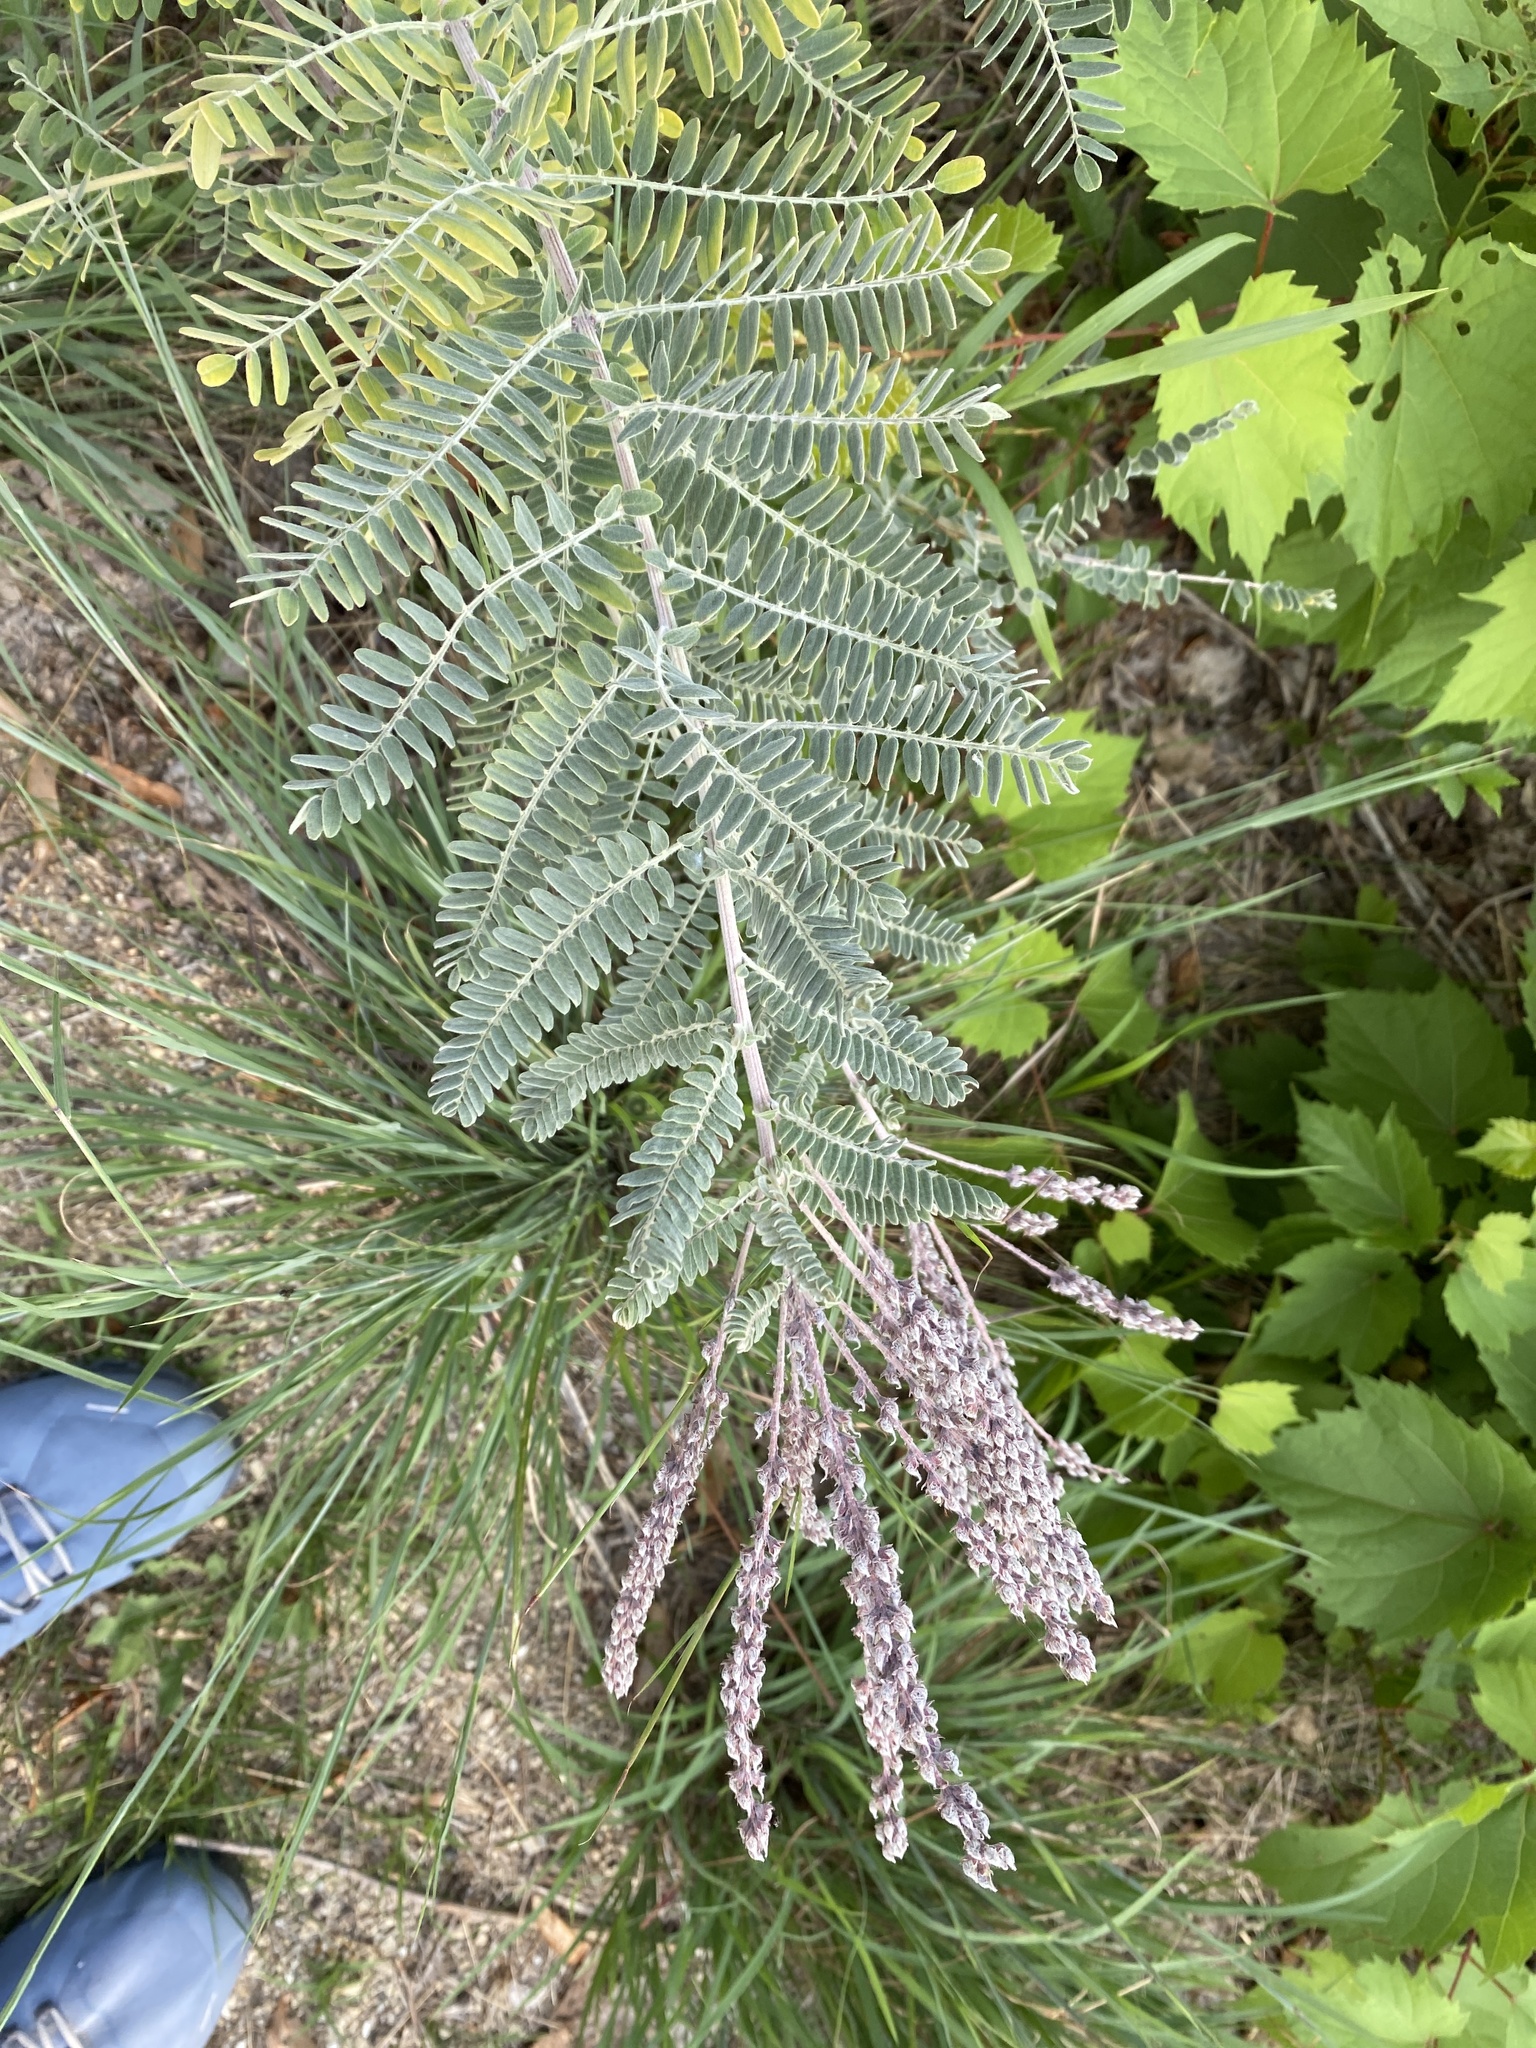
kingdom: Plantae
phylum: Tracheophyta
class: Magnoliopsida
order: Fabales
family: Fabaceae
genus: Amorpha
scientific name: Amorpha canescens
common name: Leadplant
